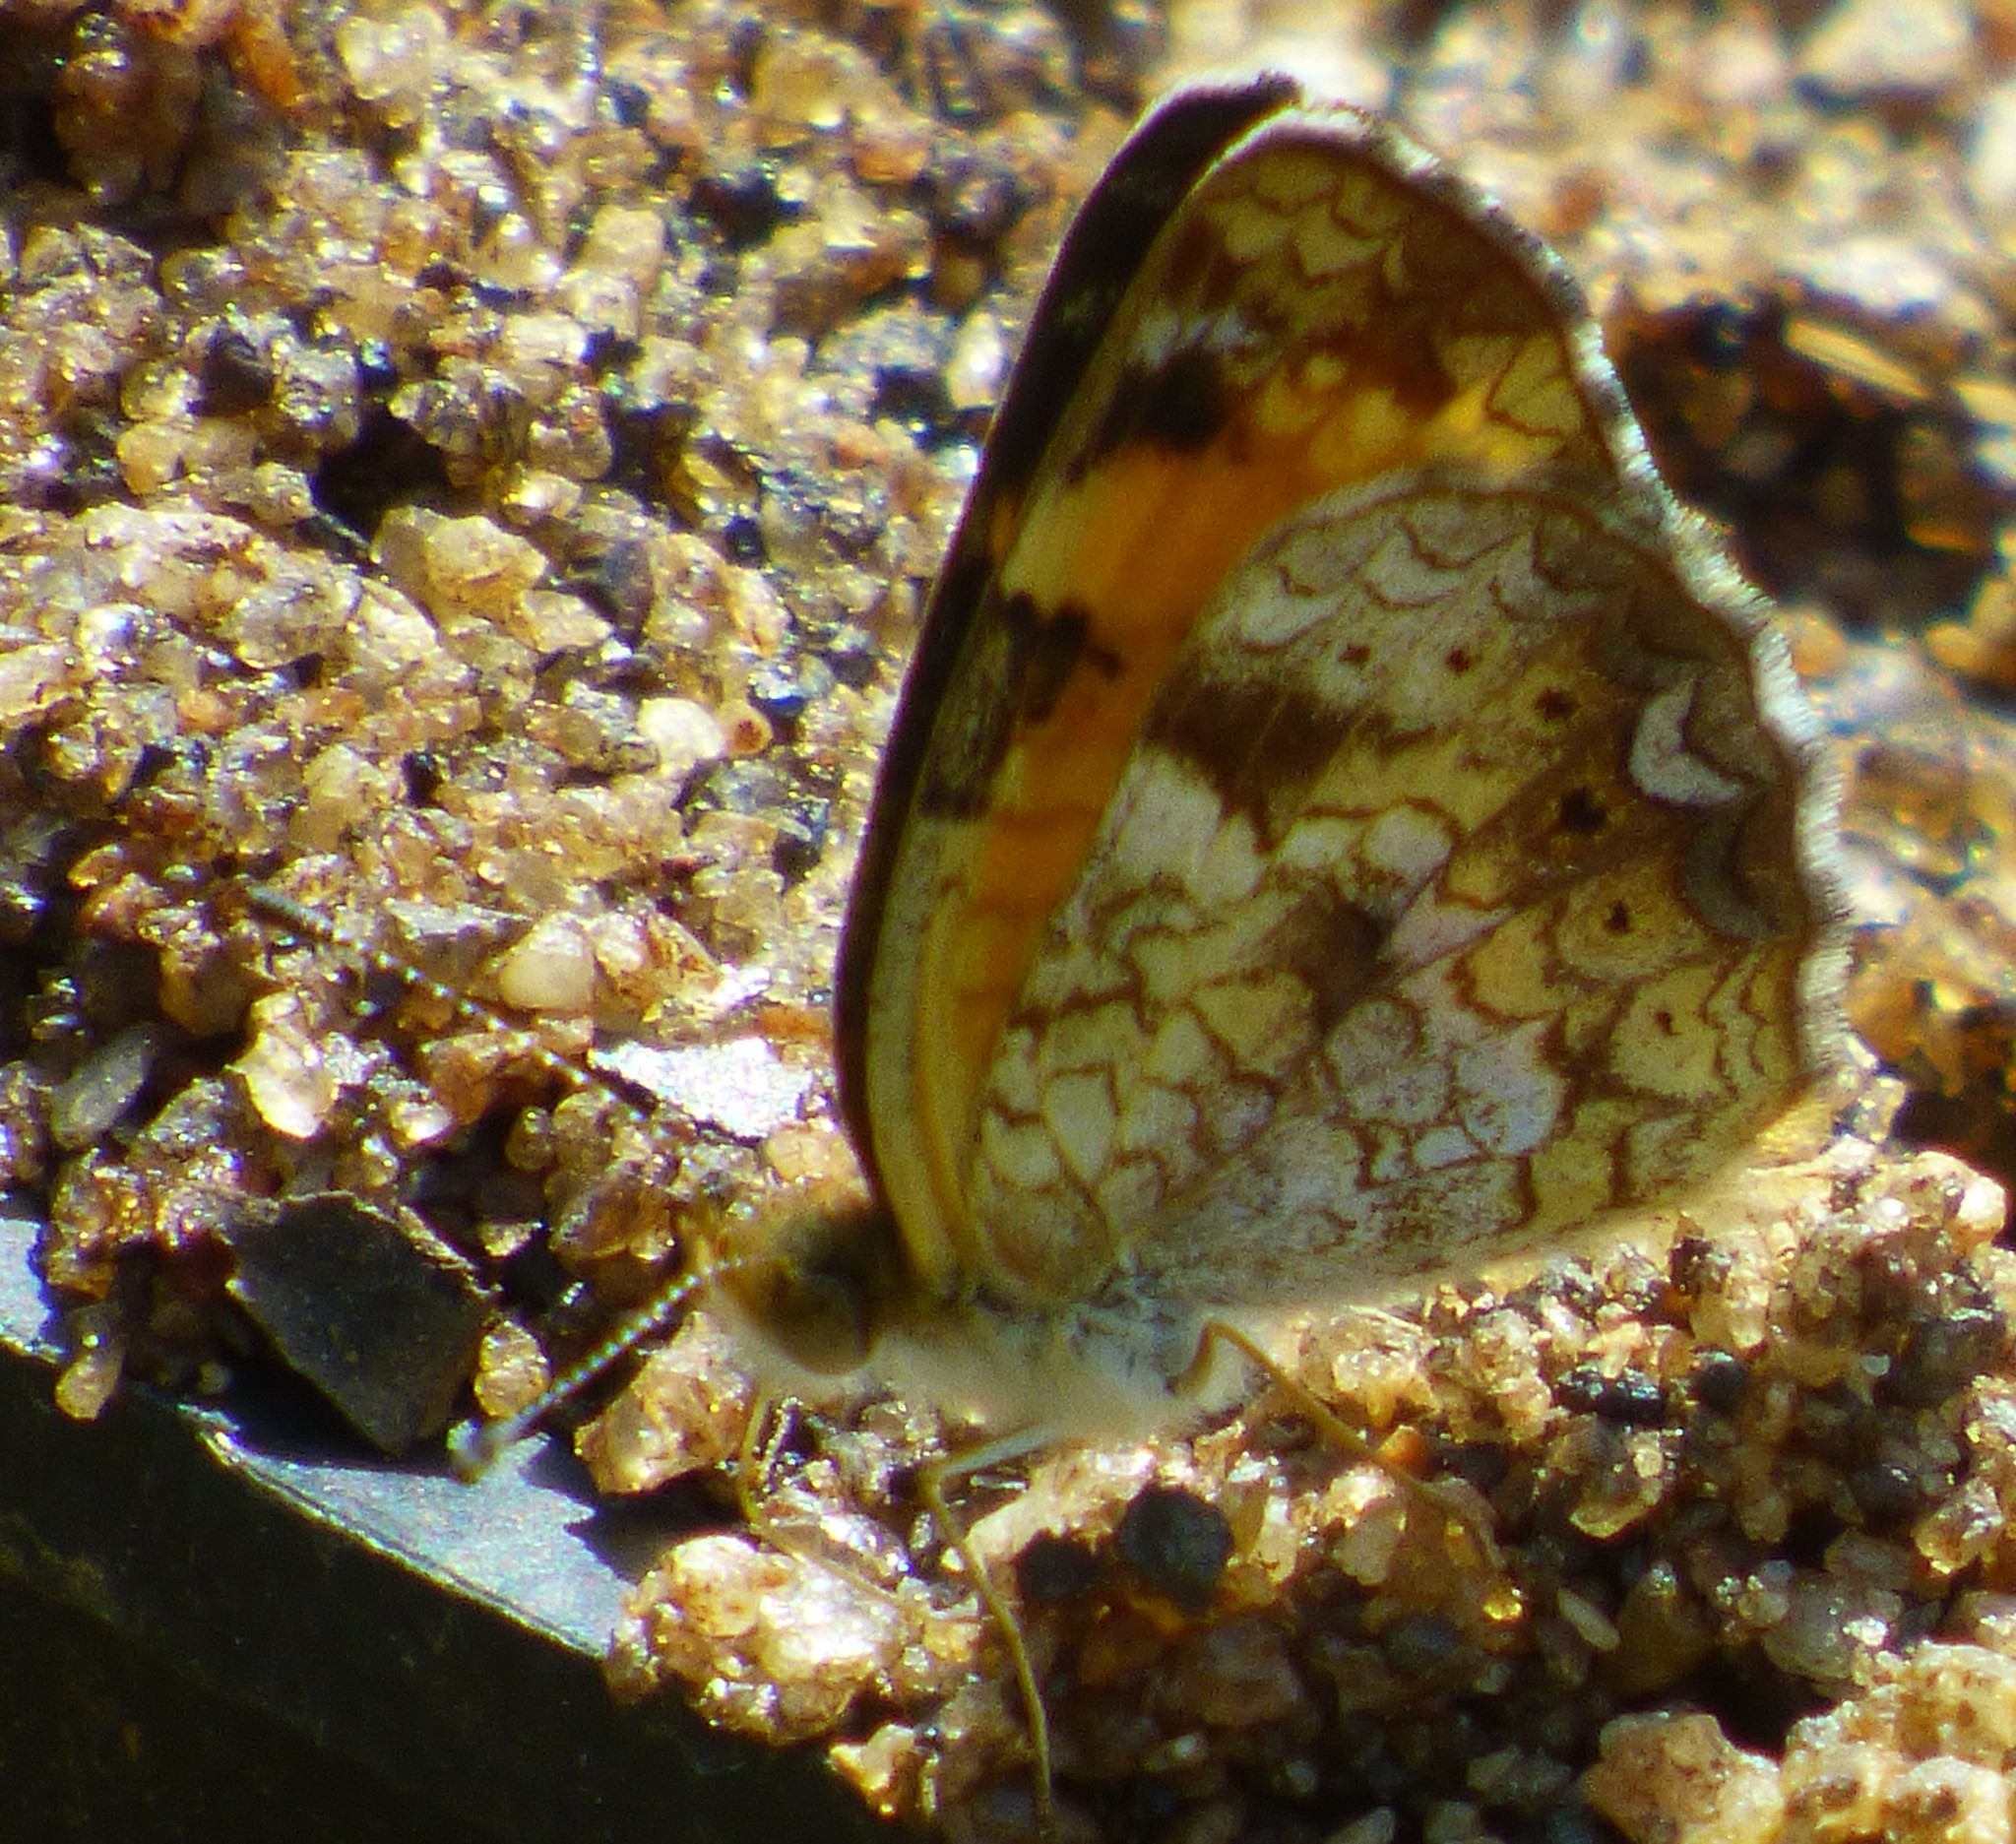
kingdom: Animalia
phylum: Arthropoda
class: Insecta
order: Lepidoptera
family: Nymphalidae
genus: Phyciodes
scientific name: Phyciodes tharos
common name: Pearl crescent
